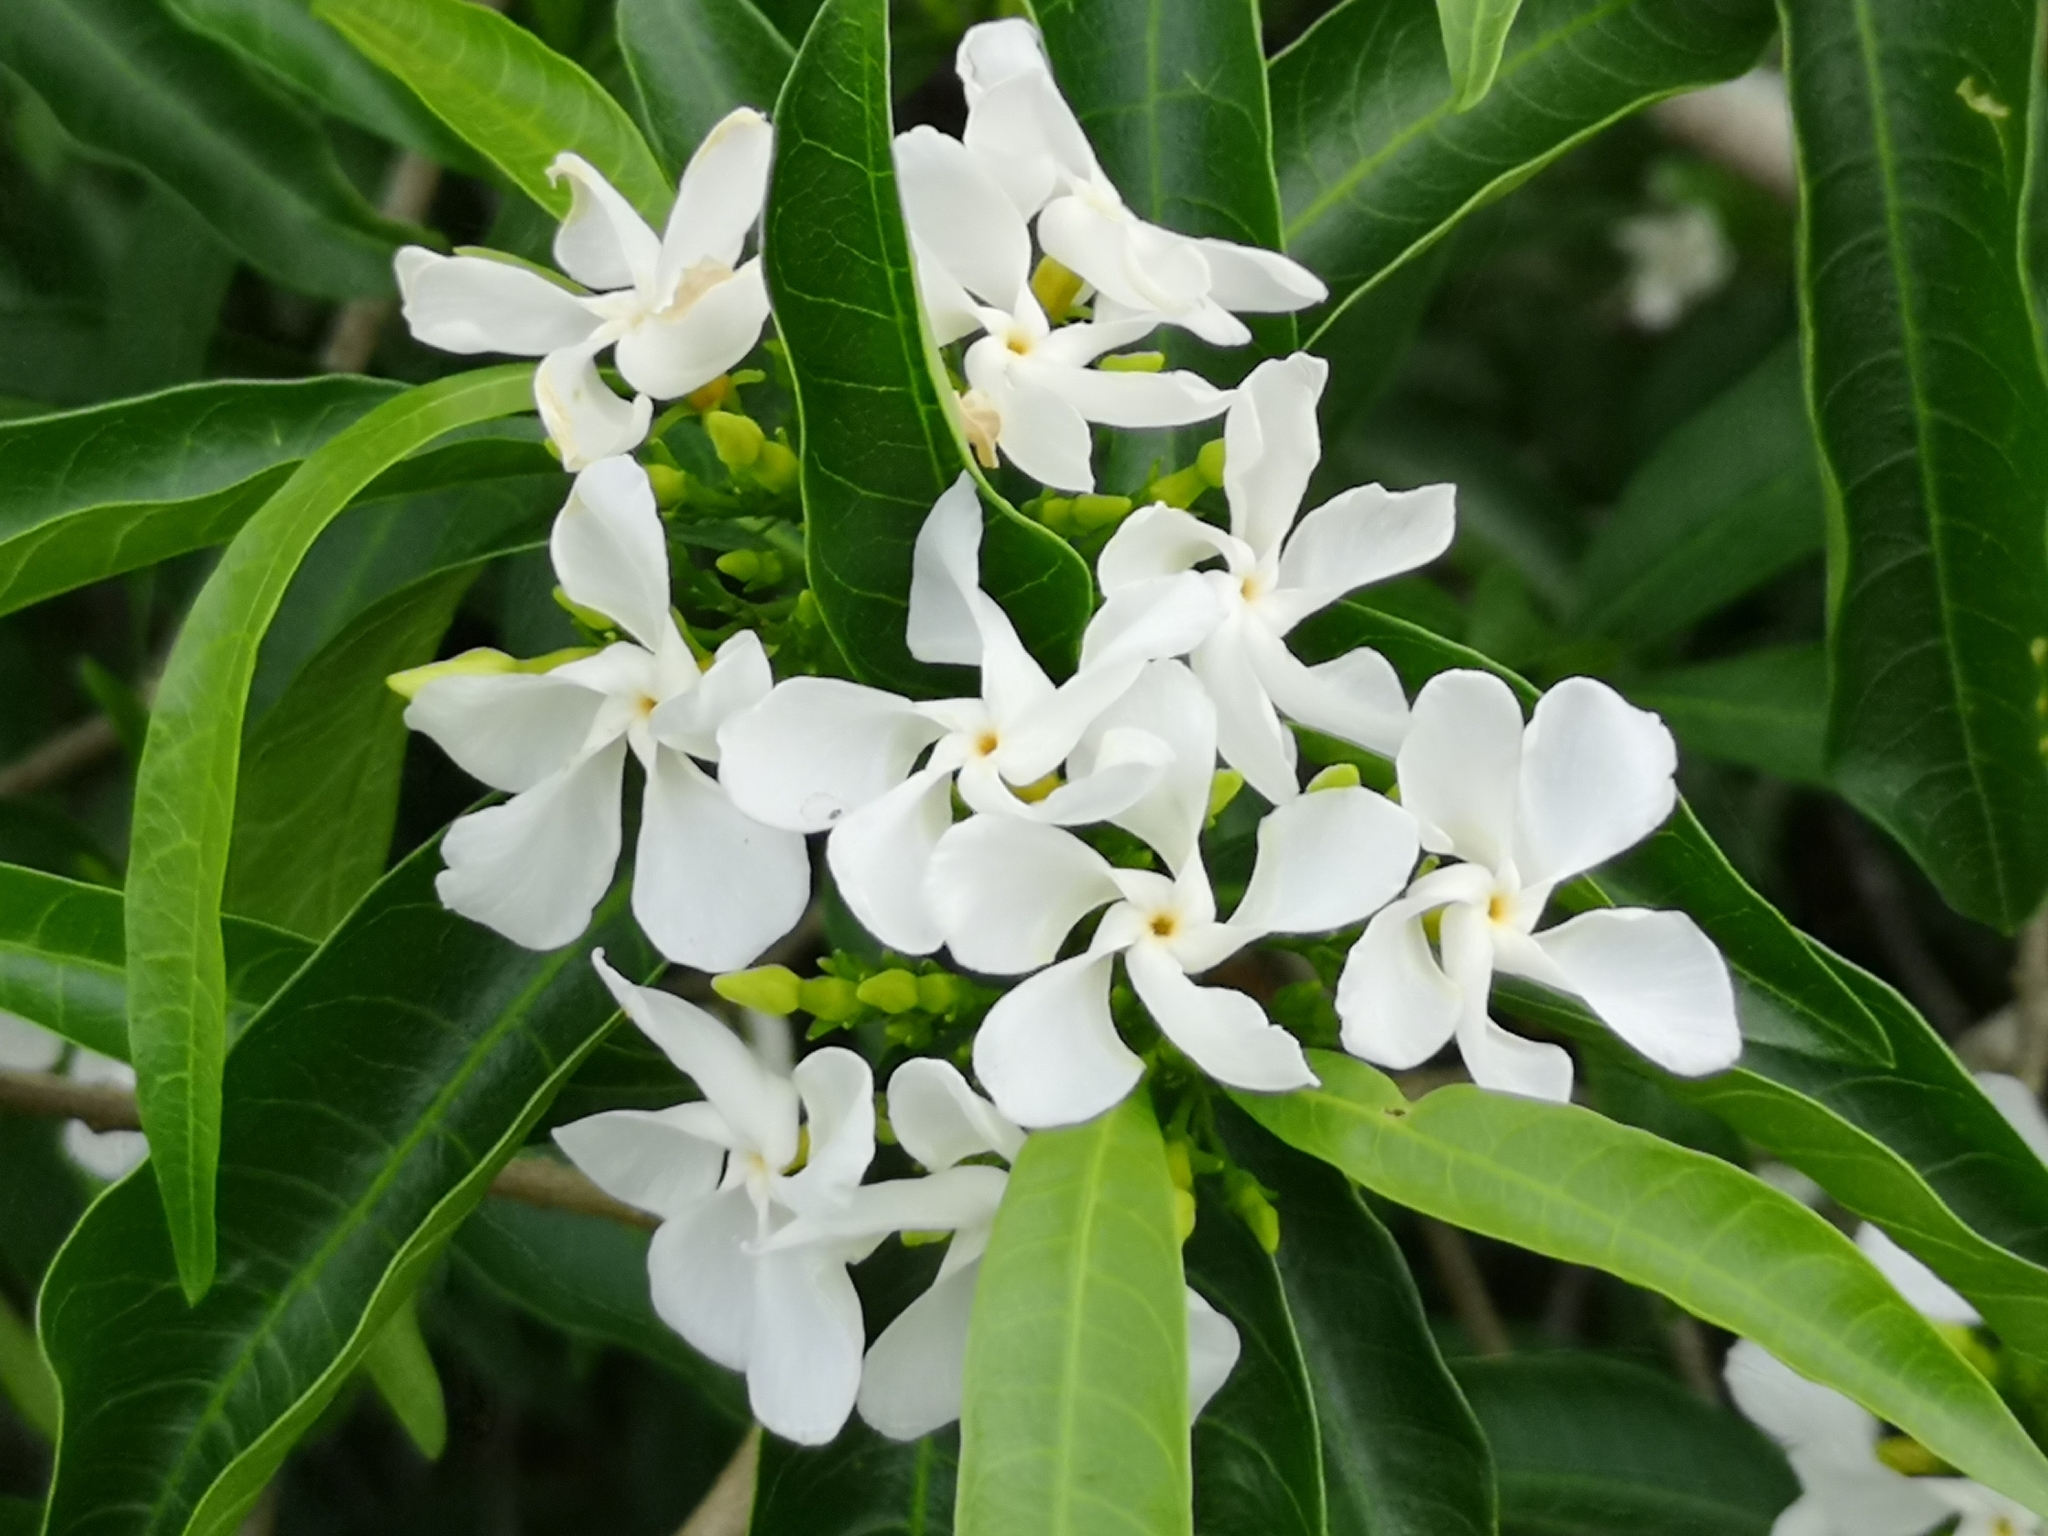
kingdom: Plantae
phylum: Tracheophyta
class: Magnoliopsida
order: Gentianales
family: Apocynaceae
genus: Tabernaemontana
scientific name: Tabernaemontana catharinensis
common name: Pinwheel-flower
